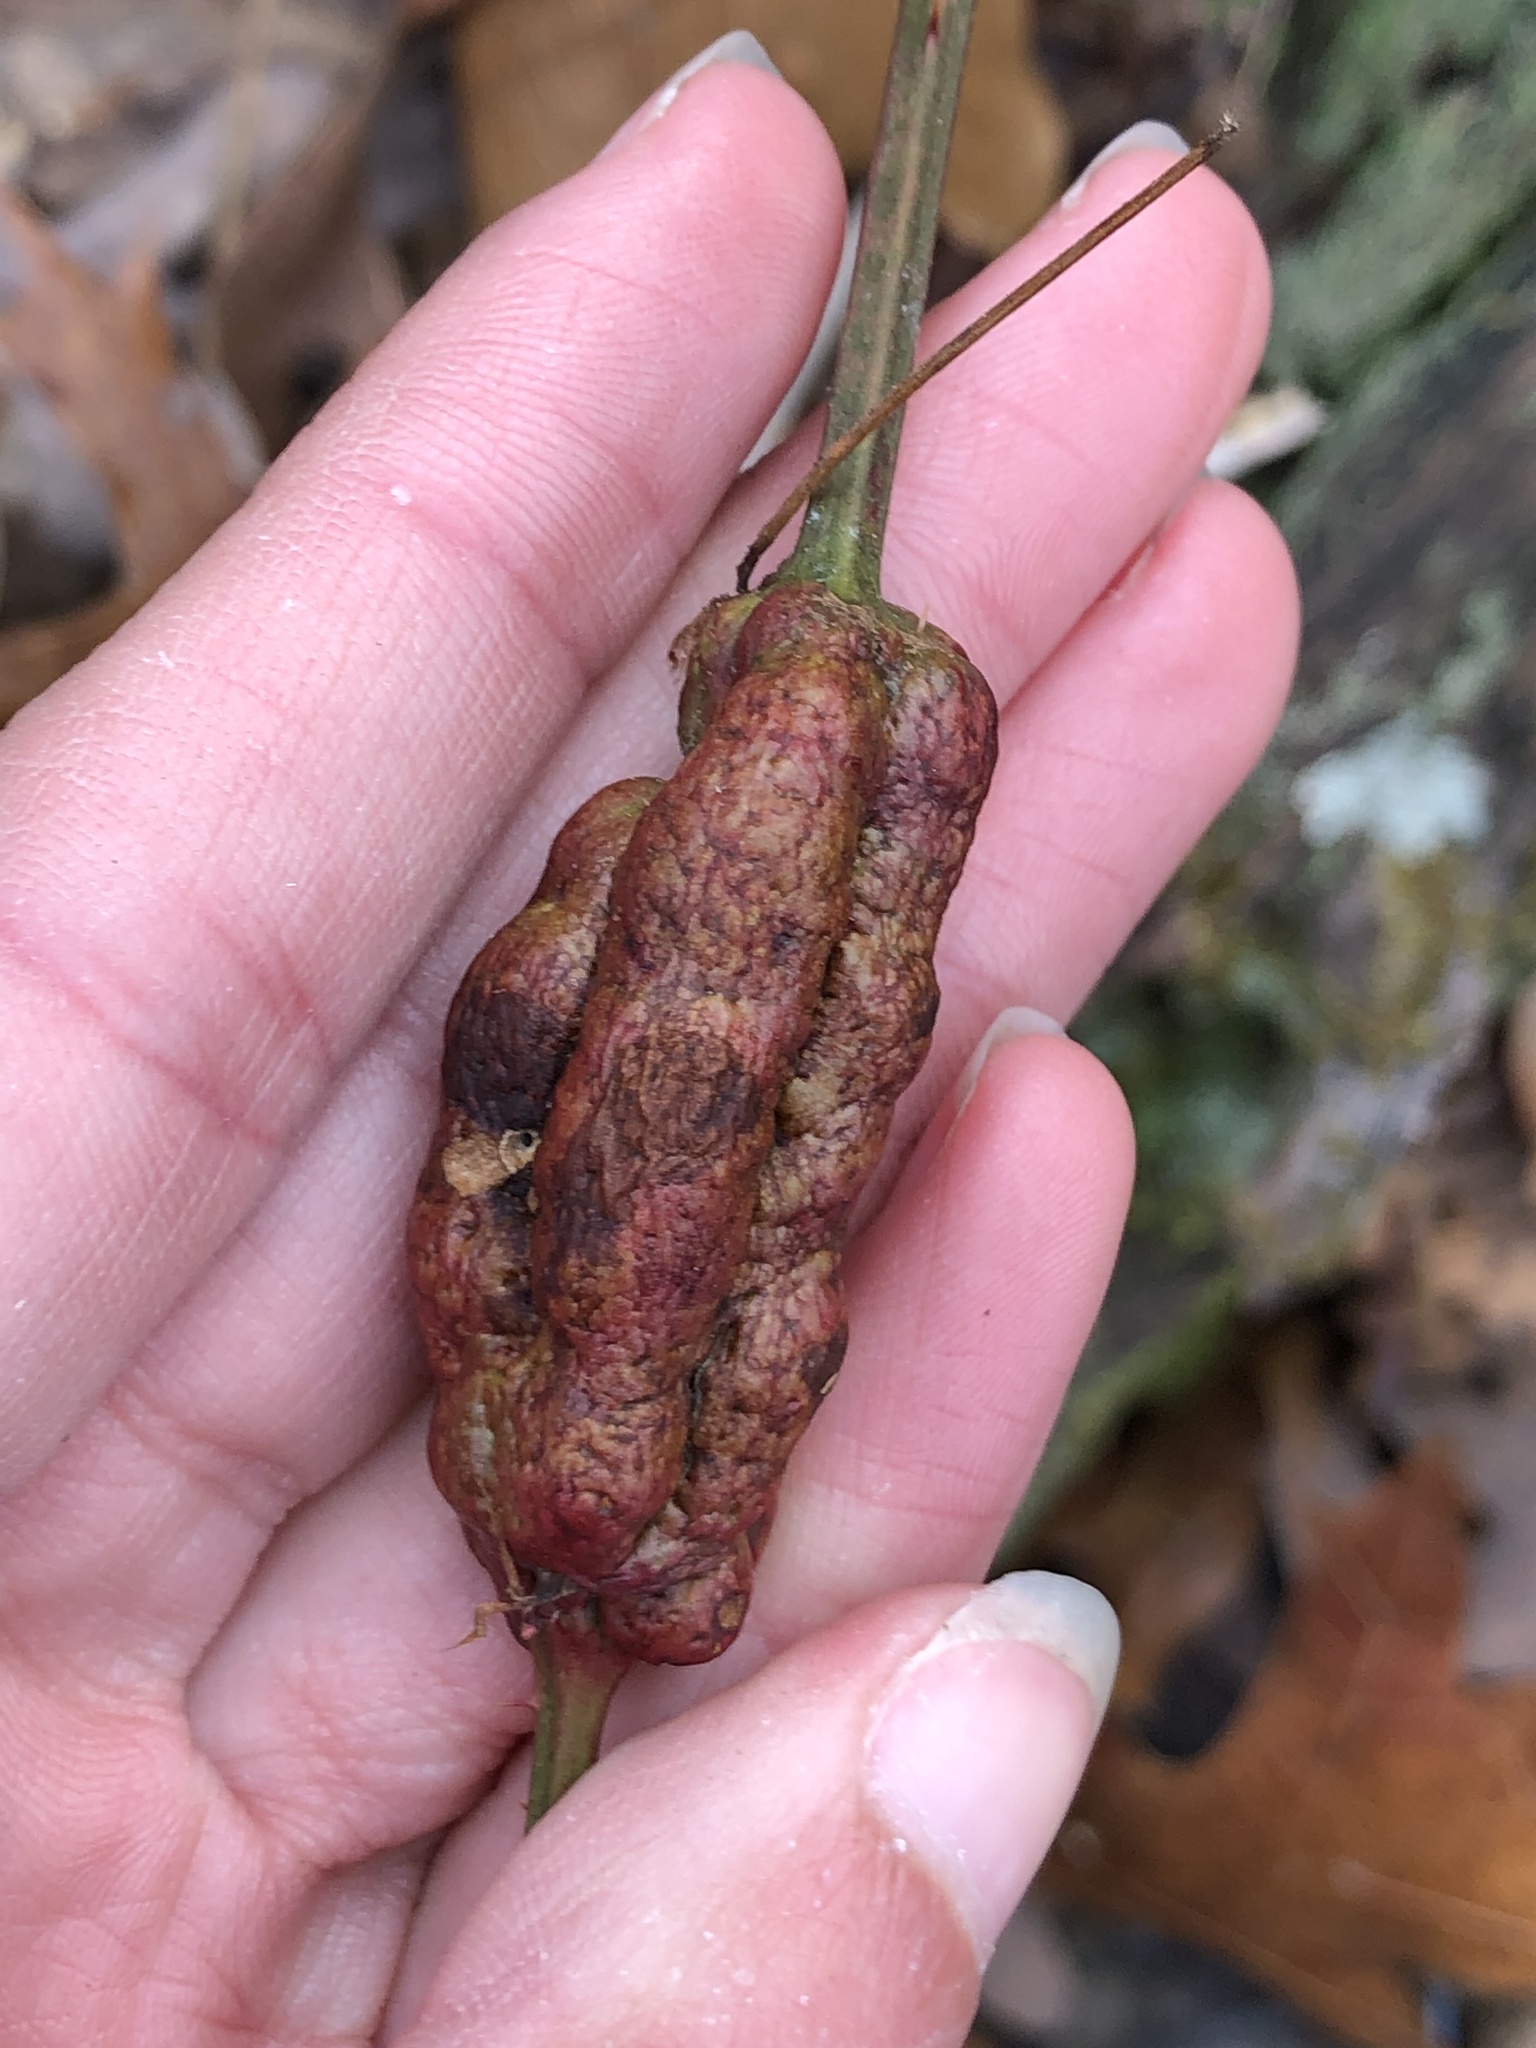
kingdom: Animalia
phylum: Arthropoda
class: Insecta
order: Hymenoptera
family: Cynipidae
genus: Diastrophus
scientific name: Diastrophus
